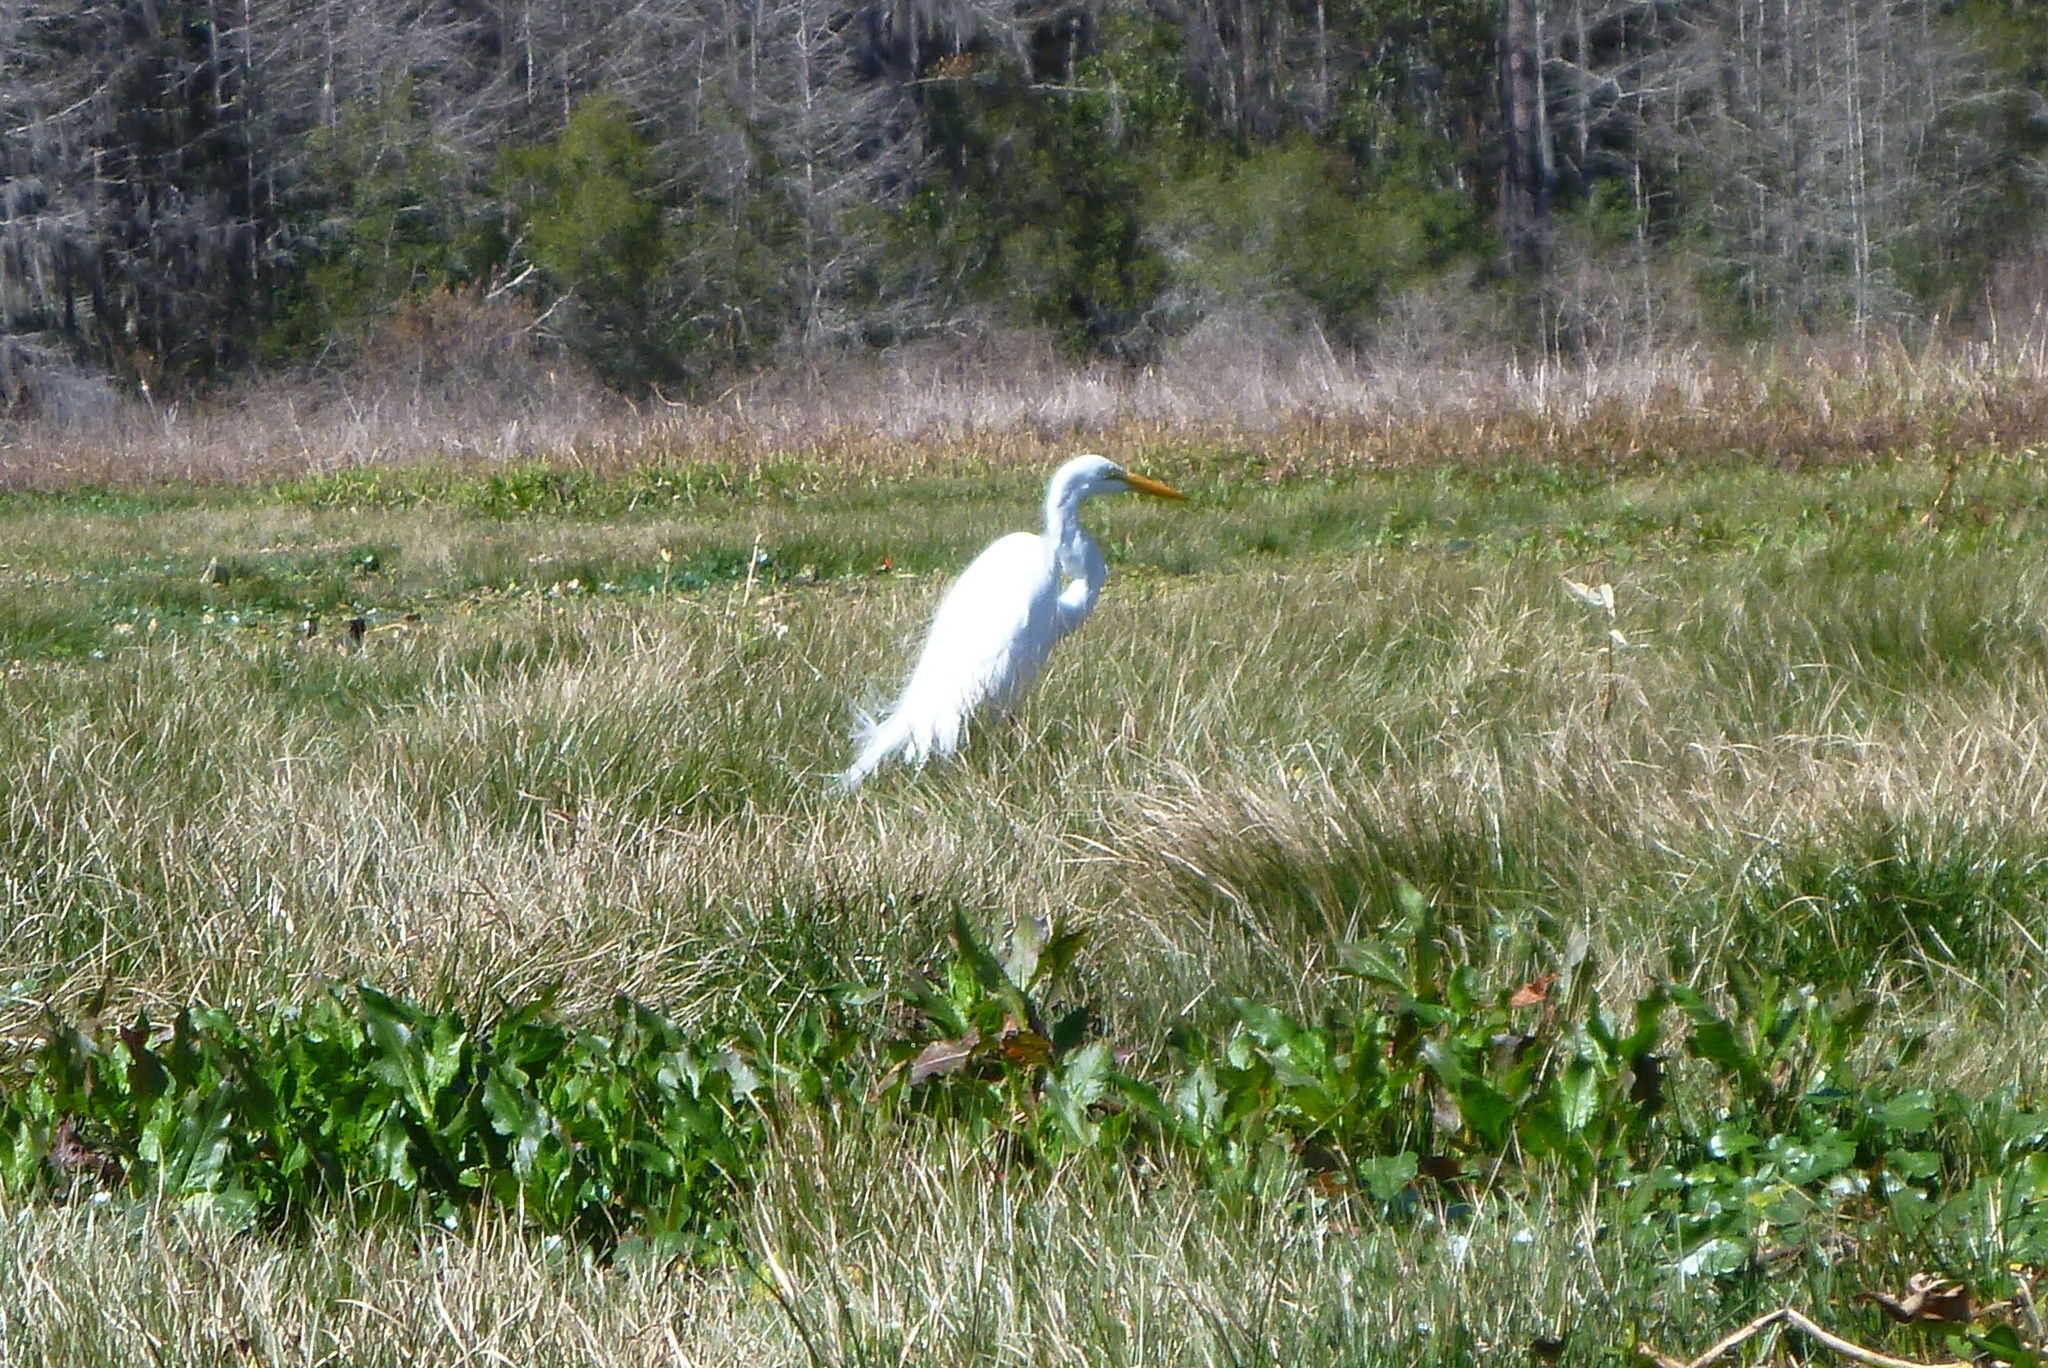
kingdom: Animalia
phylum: Chordata
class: Aves
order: Pelecaniformes
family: Ardeidae
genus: Ardea
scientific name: Ardea alba
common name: Great egret
